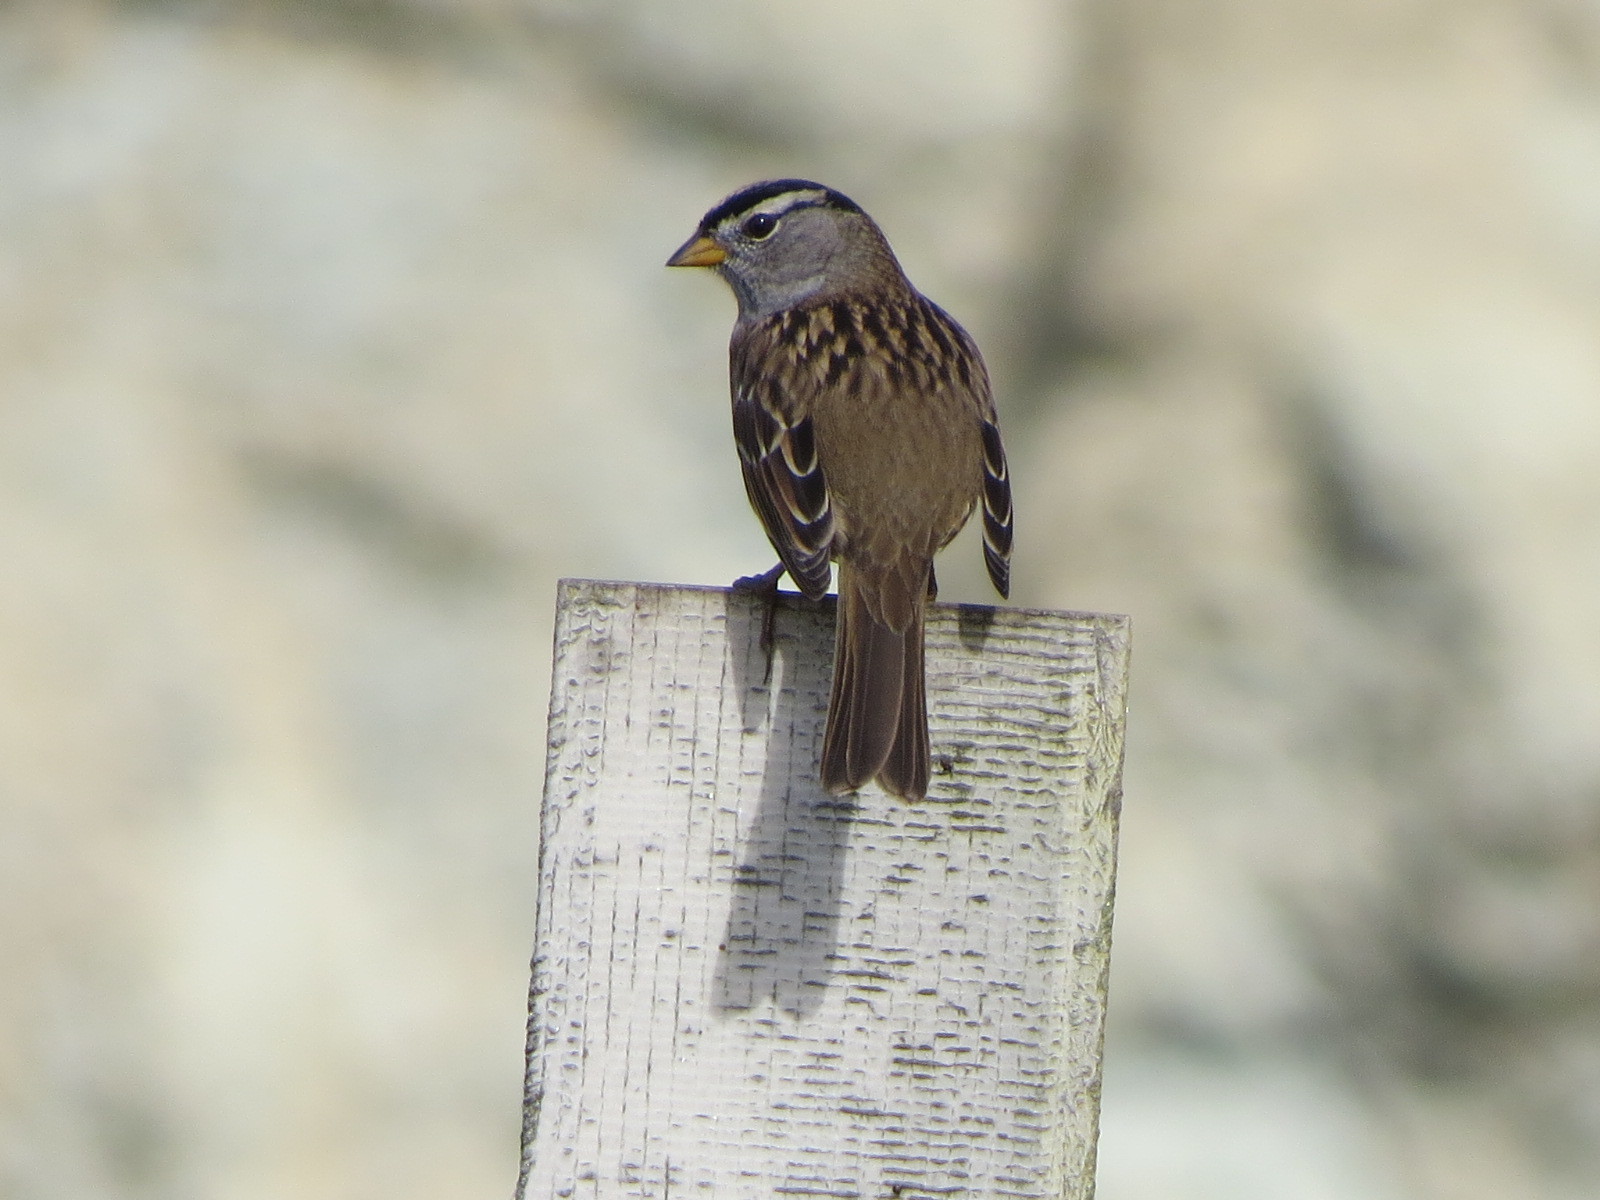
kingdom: Animalia
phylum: Chordata
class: Aves
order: Passeriformes
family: Passerellidae
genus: Zonotrichia
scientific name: Zonotrichia leucophrys
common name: White-crowned sparrow
